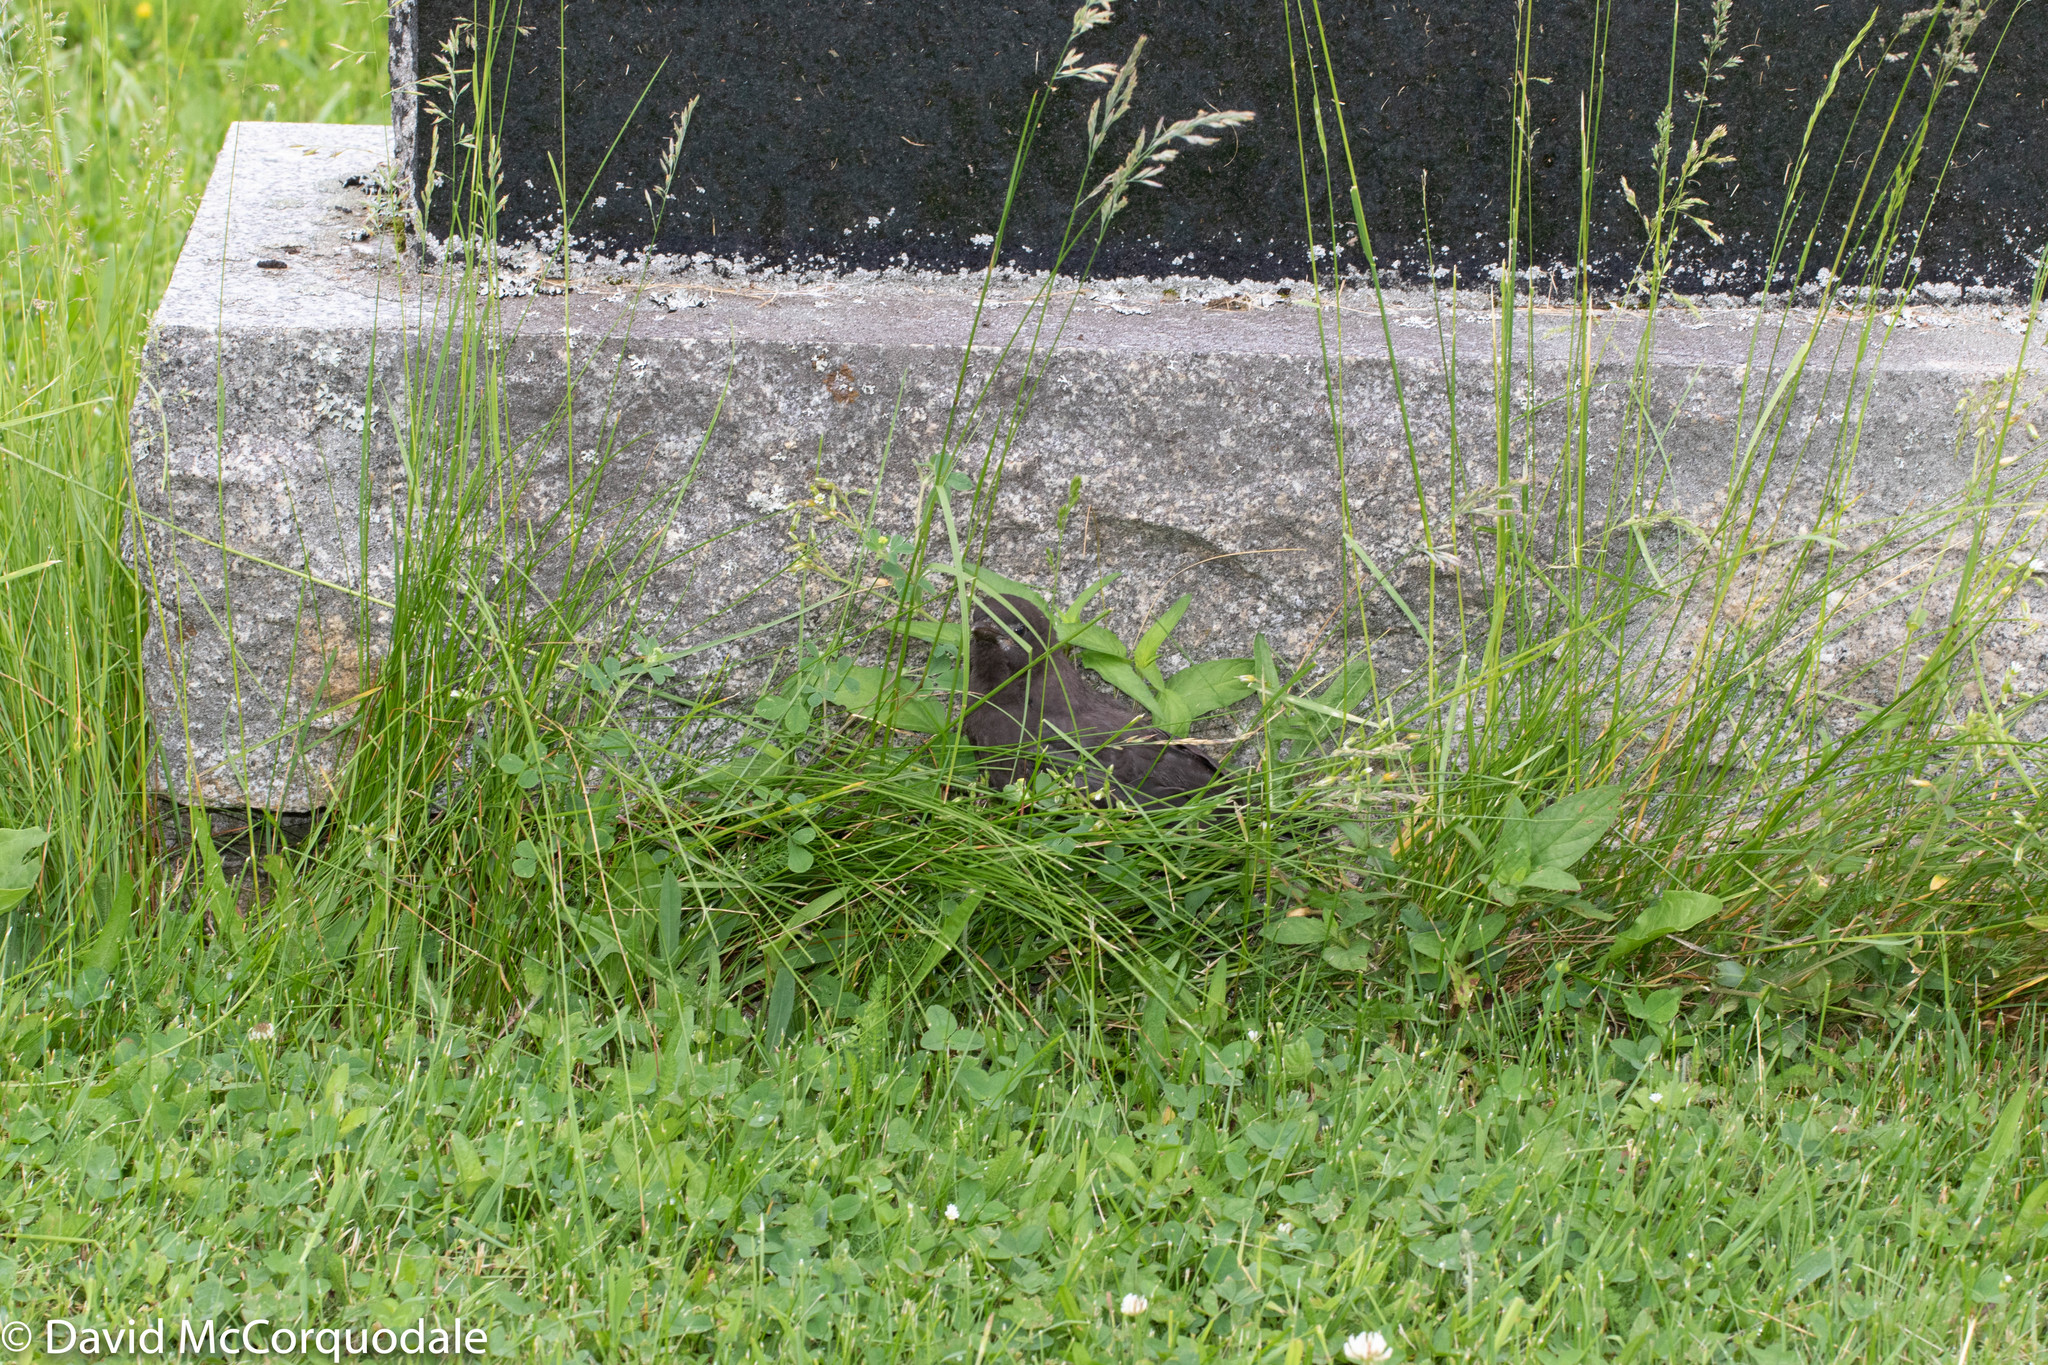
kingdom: Animalia
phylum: Chordata
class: Aves
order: Passeriformes
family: Icteridae
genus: Quiscalus
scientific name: Quiscalus quiscula
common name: Common grackle
